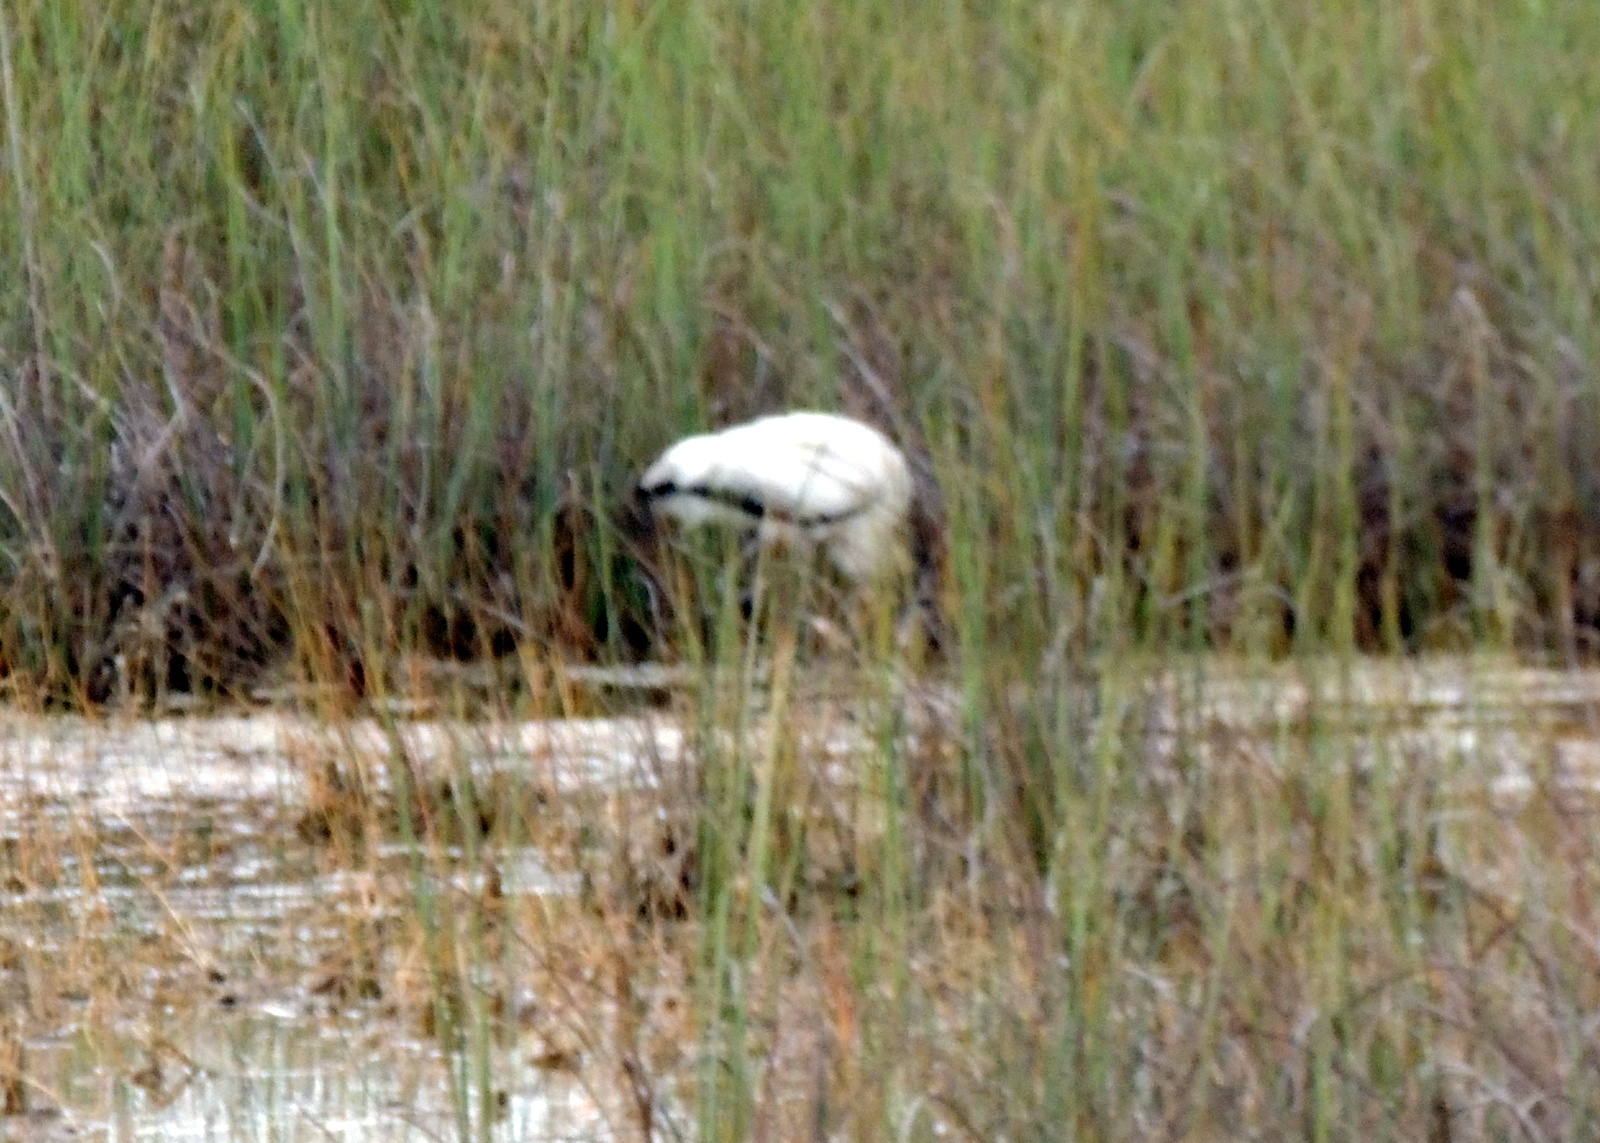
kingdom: Animalia
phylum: Chordata
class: Aves
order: Ciconiiformes
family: Ciconiidae
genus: Mycteria
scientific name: Mycteria americana
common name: Wood stork
